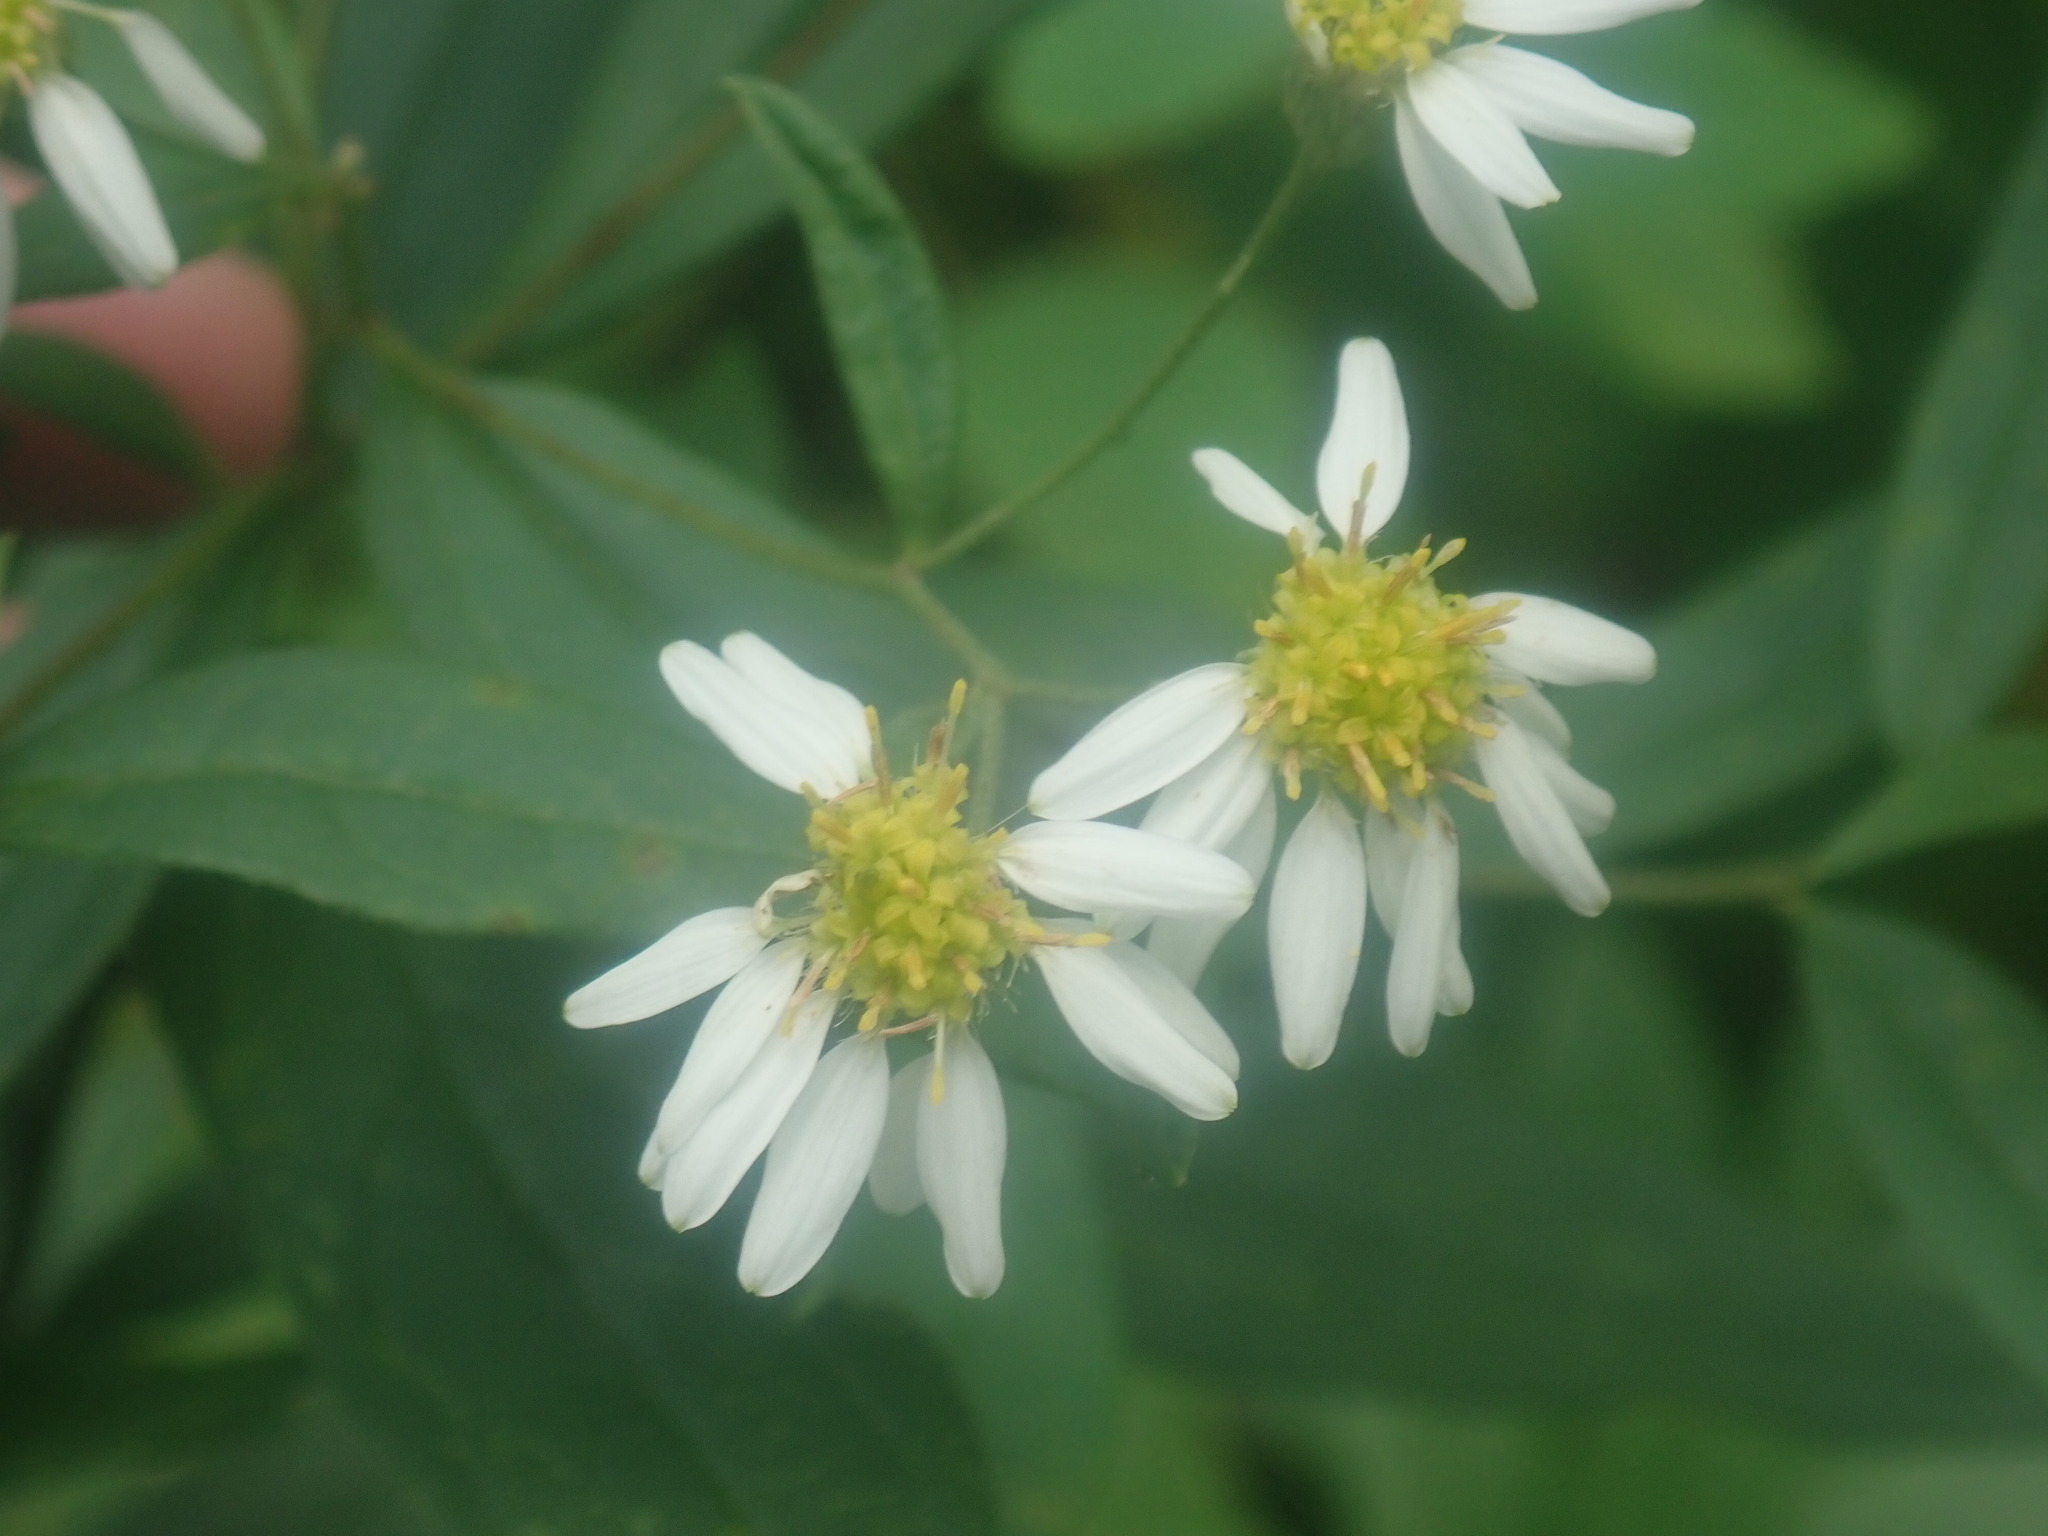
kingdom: Plantae
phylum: Tracheophyta
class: Magnoliopsida
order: Asterales
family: Asteraceae
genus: Doellingeria
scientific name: Doellingeria umbellata
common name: Flat-top white aster
